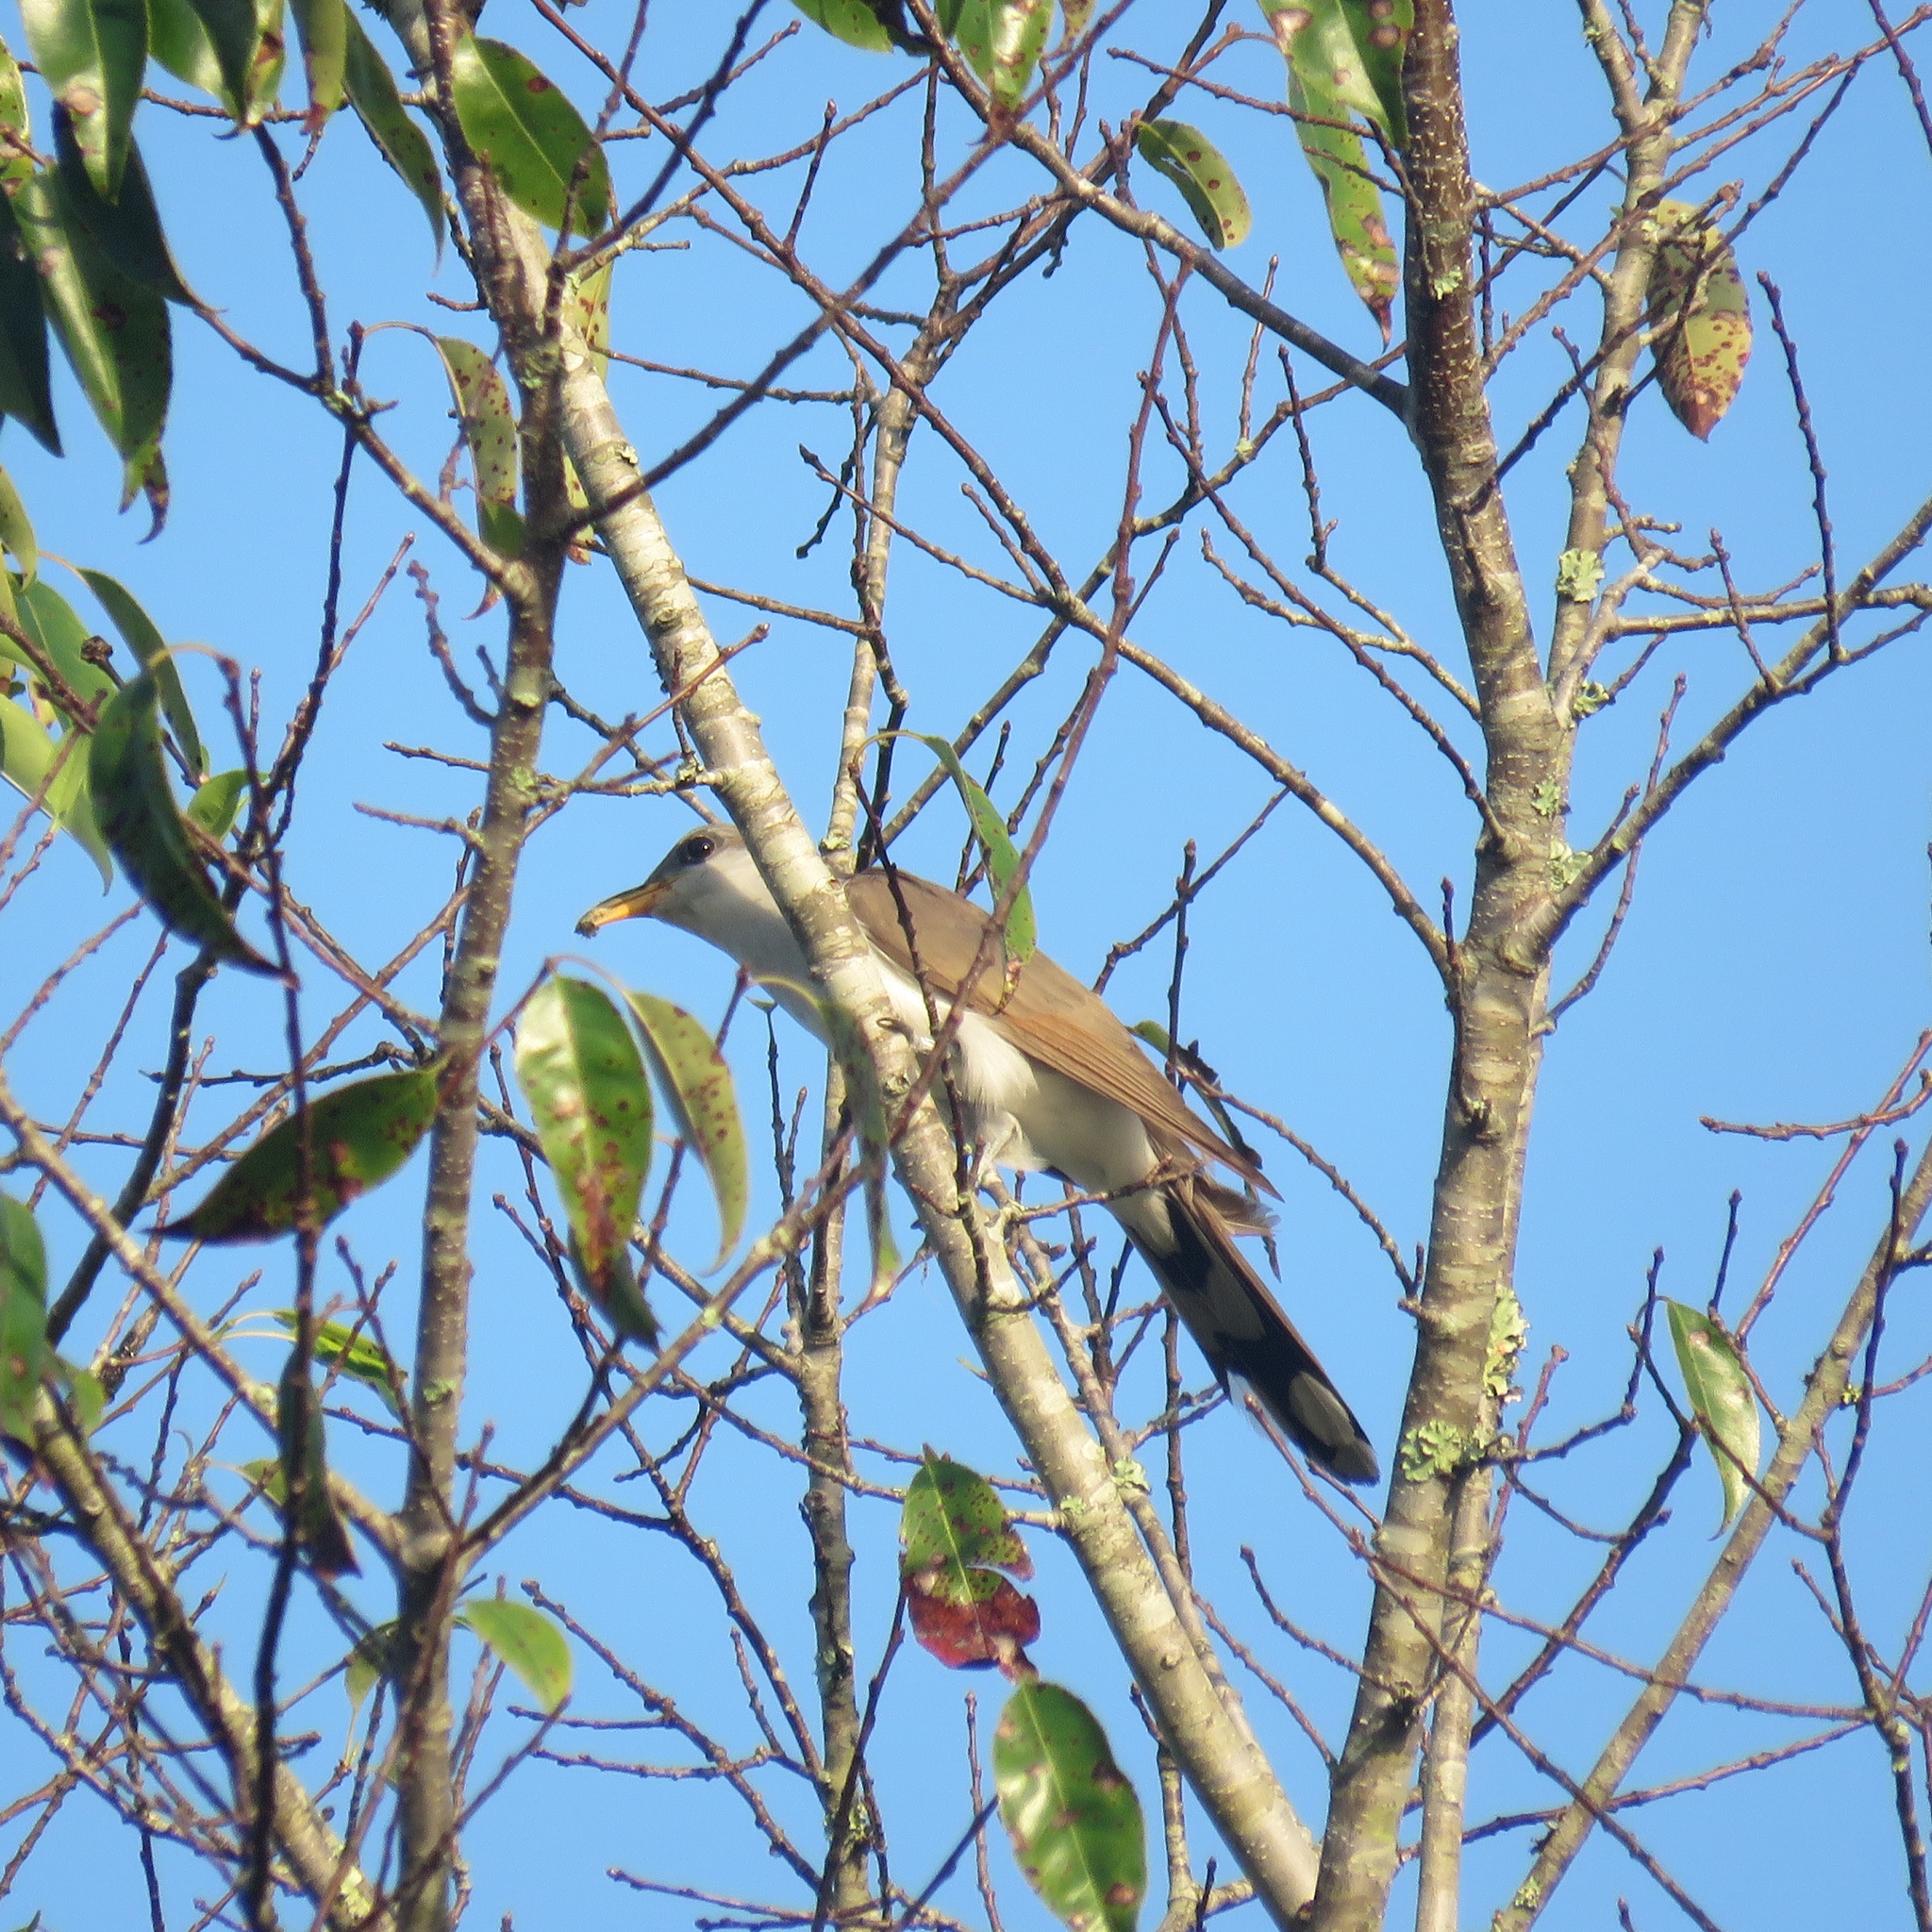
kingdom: Animalia
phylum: Chordata
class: Aves
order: Cuculiformes
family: Cuculidae
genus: Coccyzus
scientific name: Coccyzus americanus
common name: Yellow-billed cuckoo
